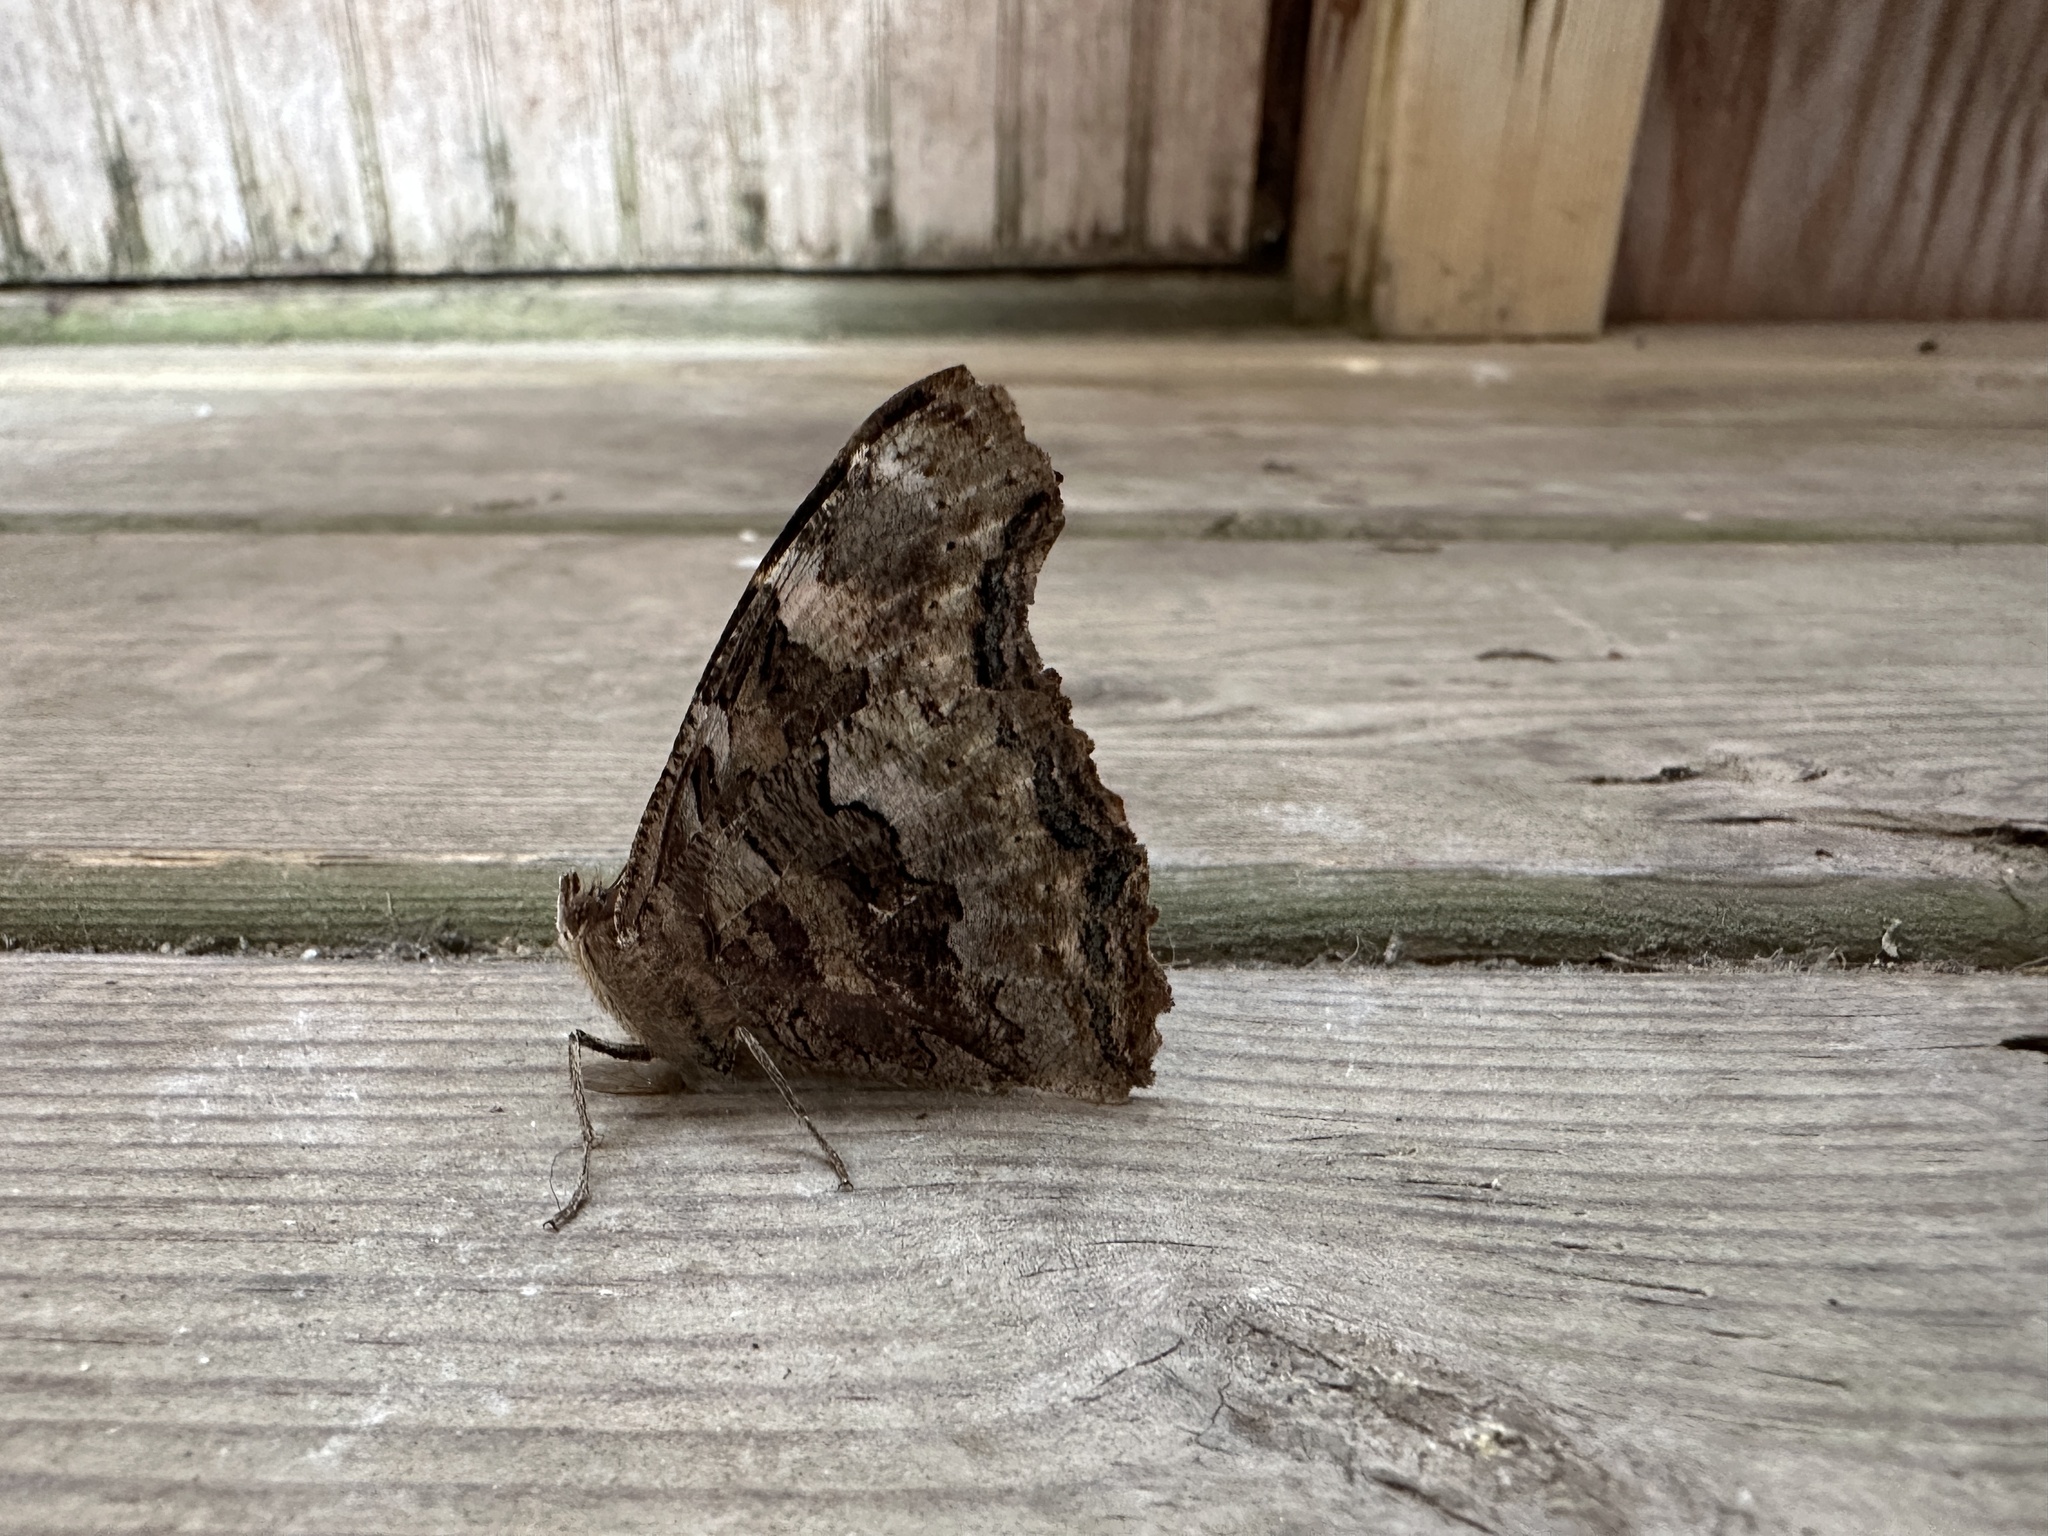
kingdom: Animalia
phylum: Arthropoda
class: Insecta
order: Lepidoptera
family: Nymphalidae
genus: Polygonia
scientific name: Polygonia vaualbum
